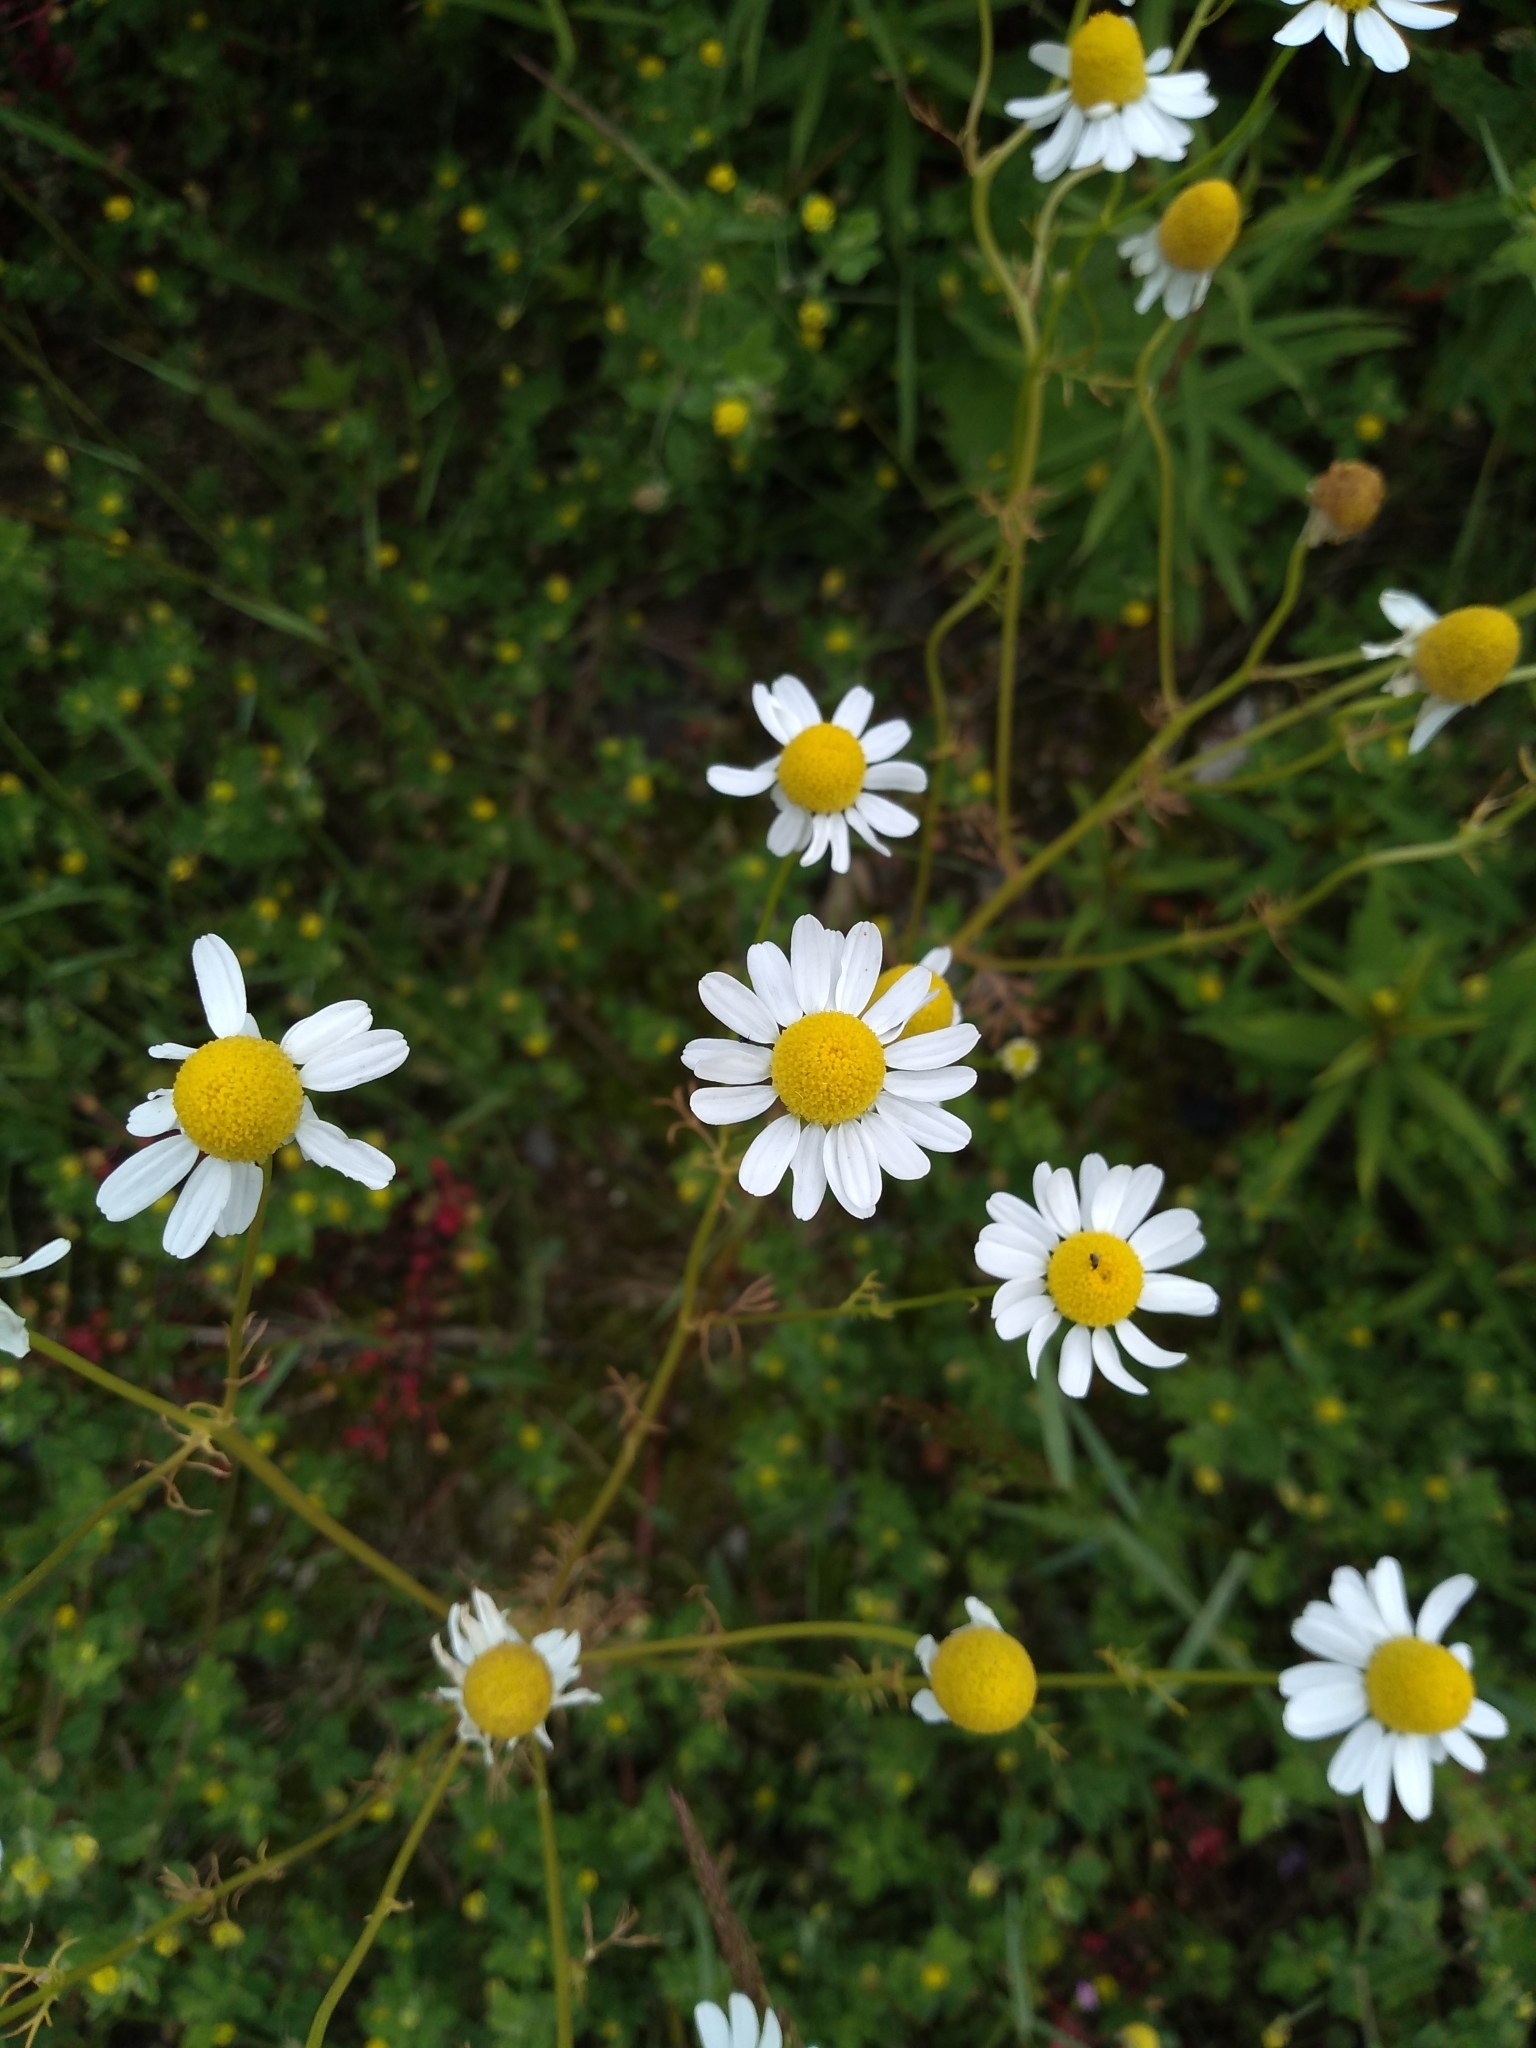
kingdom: Plantae
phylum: Tracheophyta
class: Magnoliopsida
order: Asterales
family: Asteraceae
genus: Matricaria
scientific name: Matricaria chamomilla
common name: Scented mayweed
